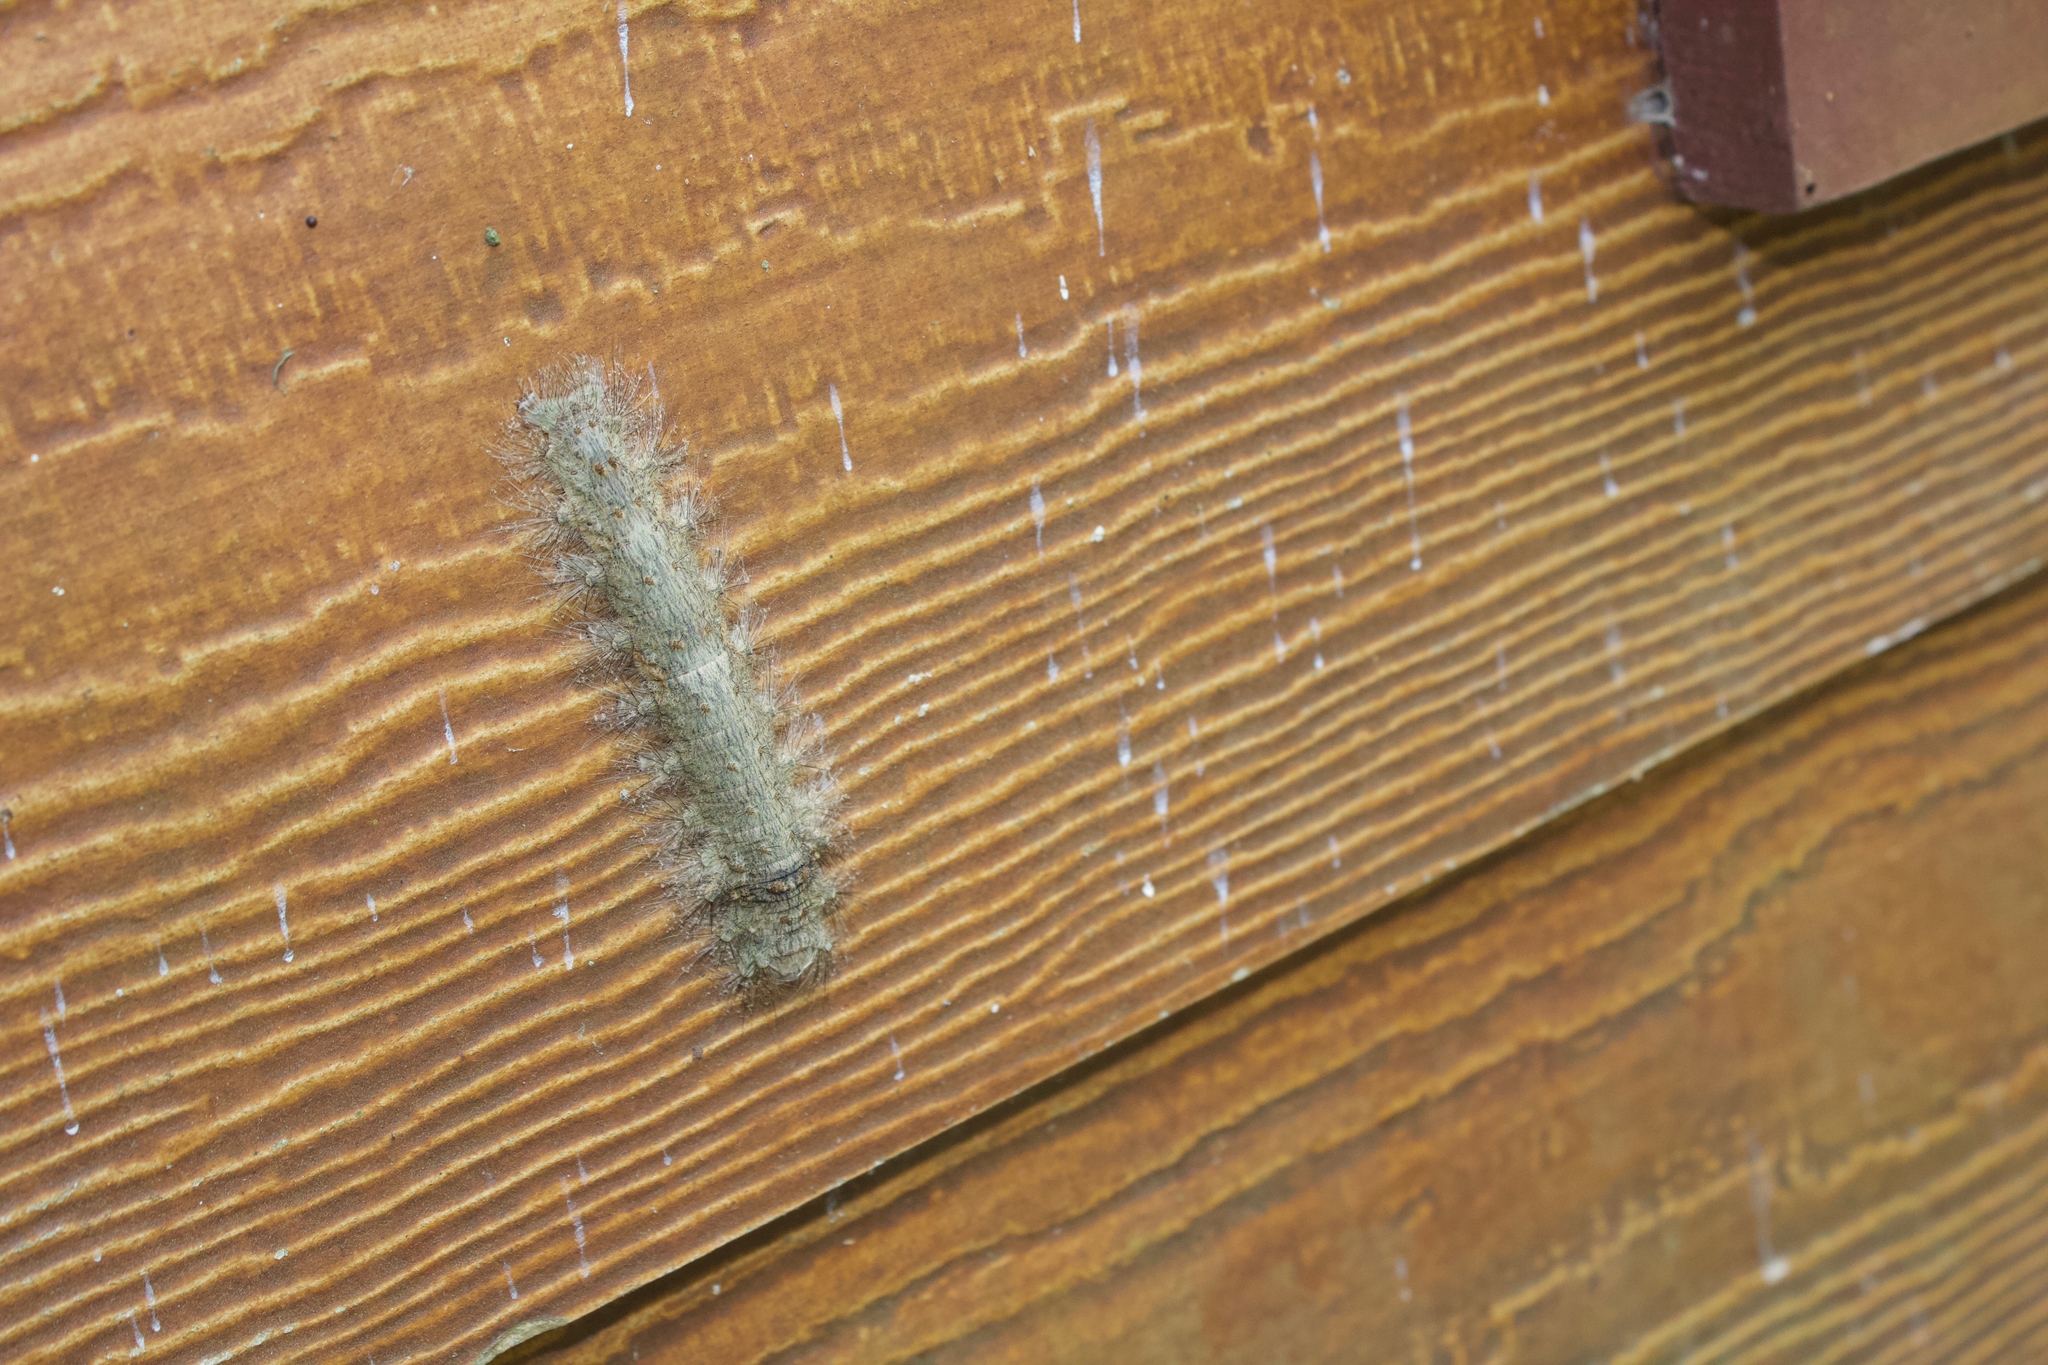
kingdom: Animalia
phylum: Arthropoda
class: Insecta
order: Lepidoptera
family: Lasiocampidae
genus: Tolype
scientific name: Tolype velleda
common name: Large tolype moth
